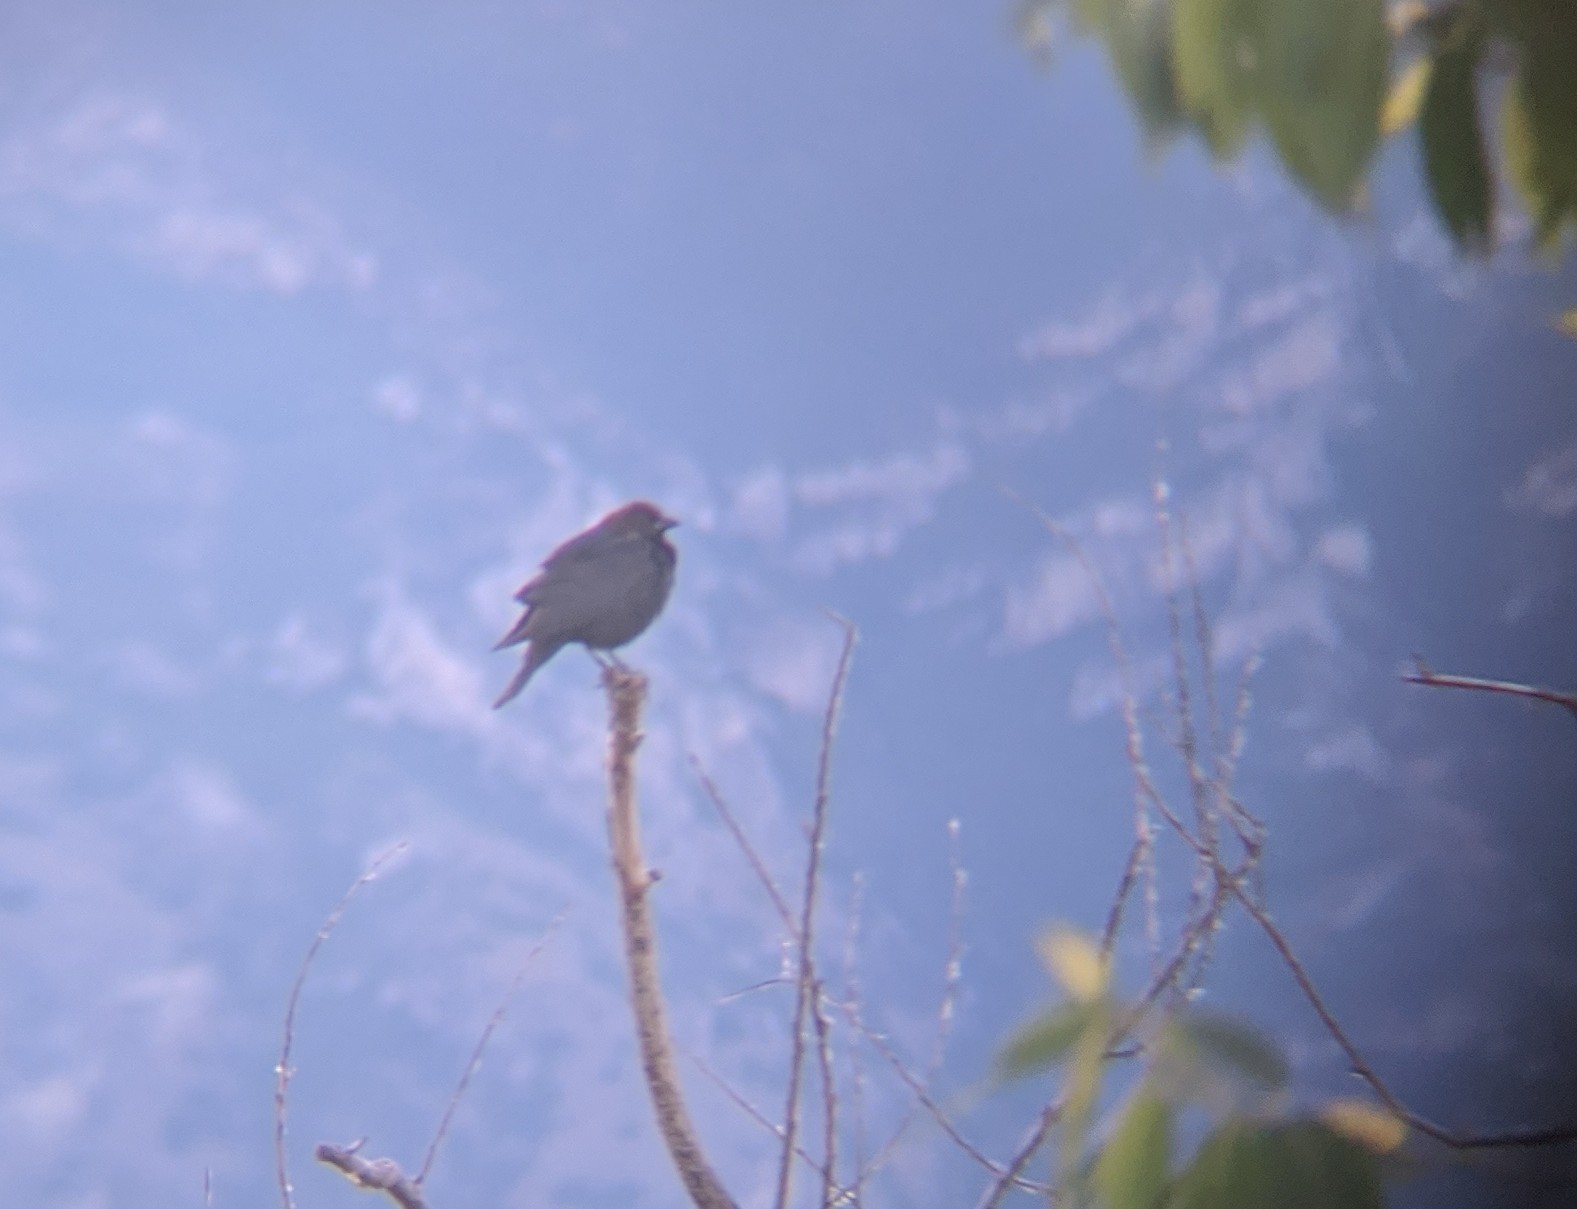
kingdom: Animalia
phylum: Chordata
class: Aves
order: Passeriformes
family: Icteridae
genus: Molothrus
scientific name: Molothrus ater
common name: Brown-headed cowbird
